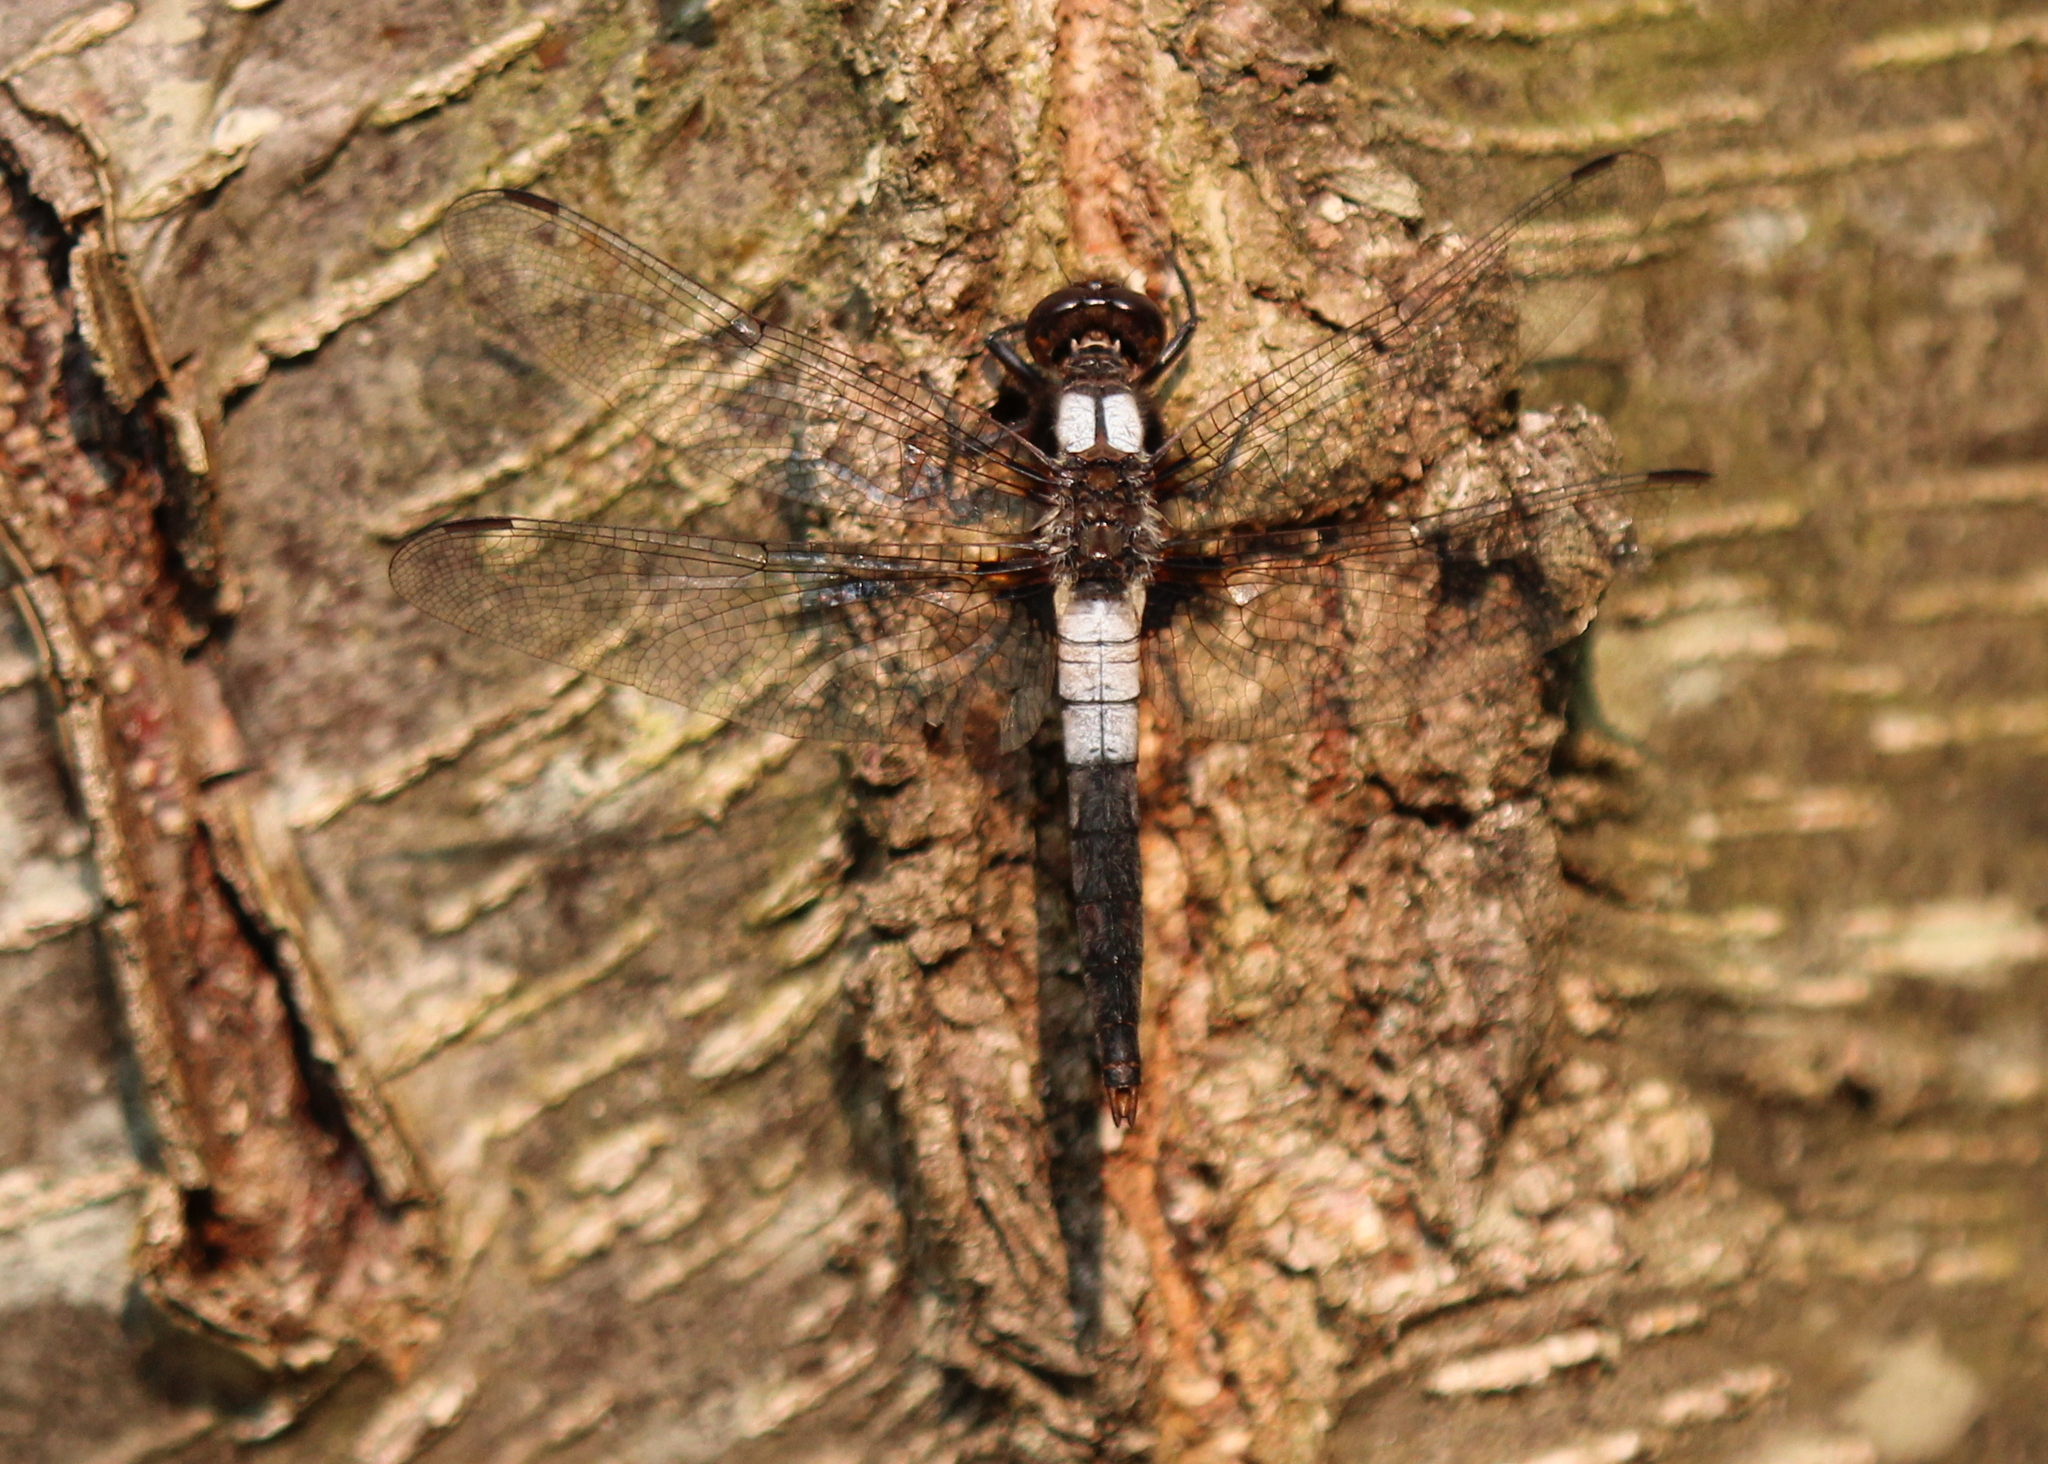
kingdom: Animalia
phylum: Arthropoda
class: Insecta
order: Odonata
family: Libellulidae
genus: Ladona
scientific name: Ladona julia
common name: Chalk-fronted corporal
